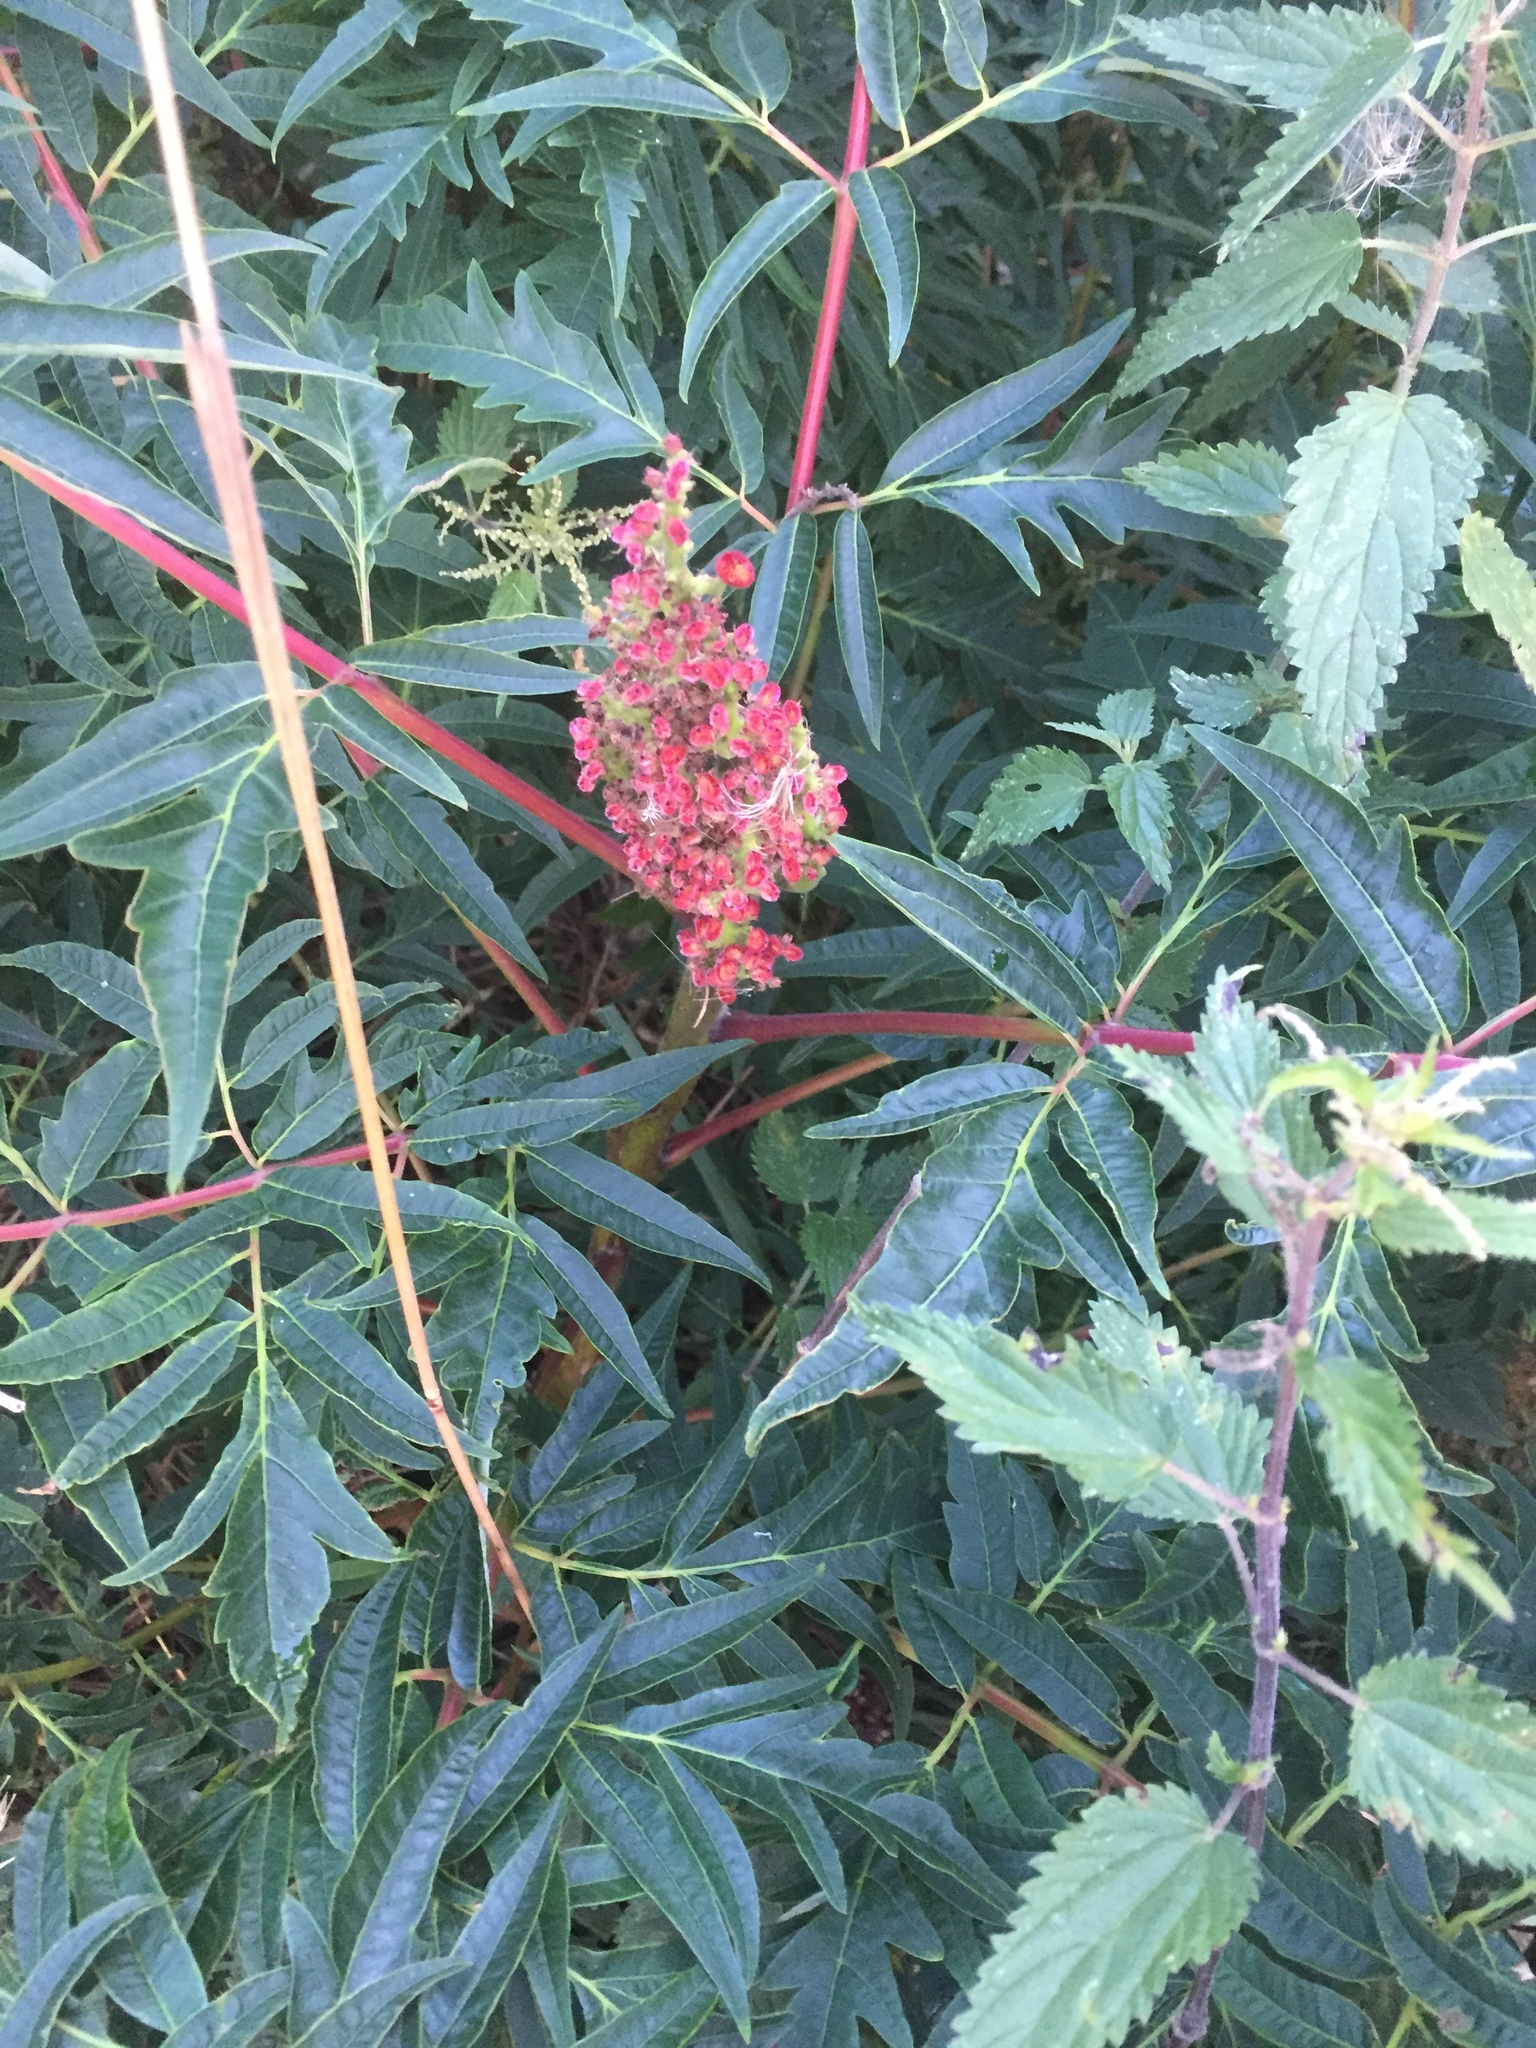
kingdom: Plantae
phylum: Tracheophyta
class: Magnoliopsida
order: Sapindales
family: Anacardiaceae
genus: Rhus
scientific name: Rhus typhina
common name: Staghorn sumac
